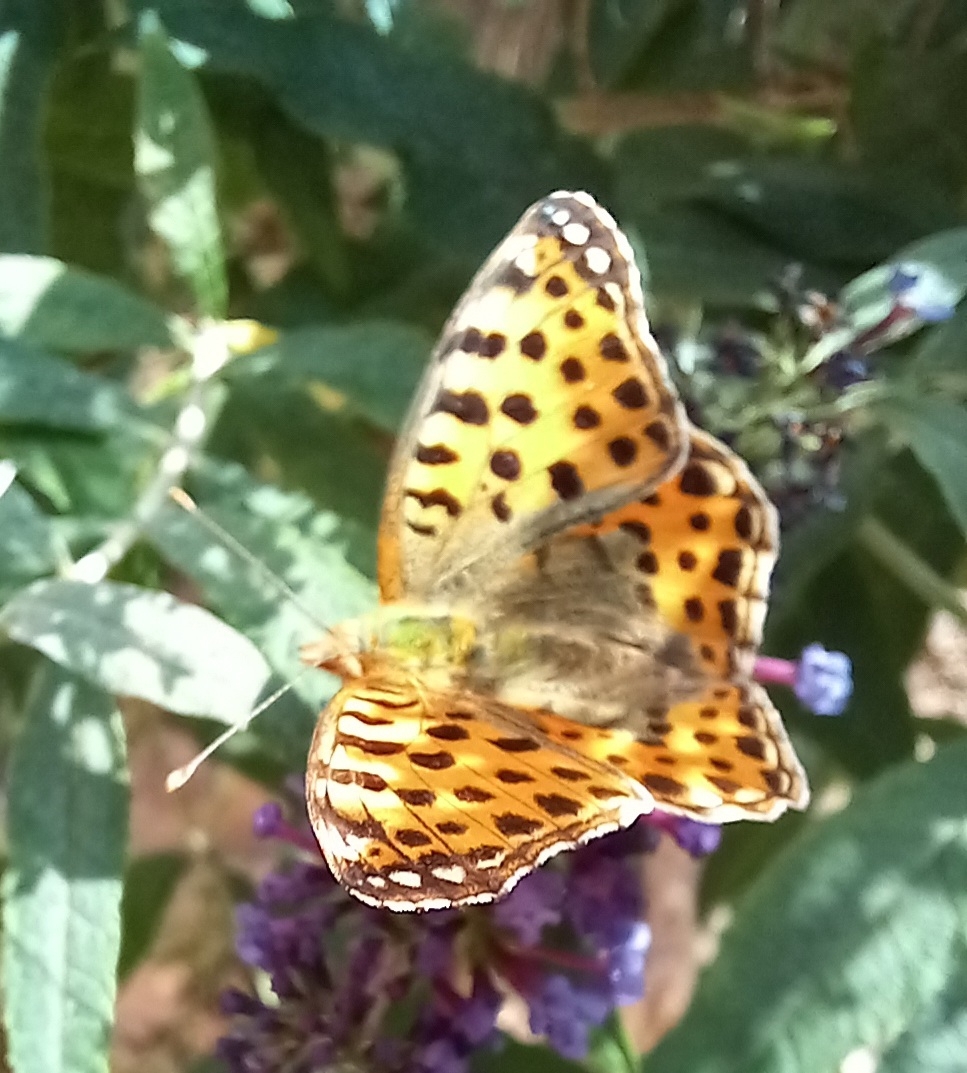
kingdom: Animalia
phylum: Arthropoda
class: Insecta
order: Lepidoptera
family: Nymphalidae
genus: Issoria
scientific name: Issoria lathonia
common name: Queen of spain fritillary
